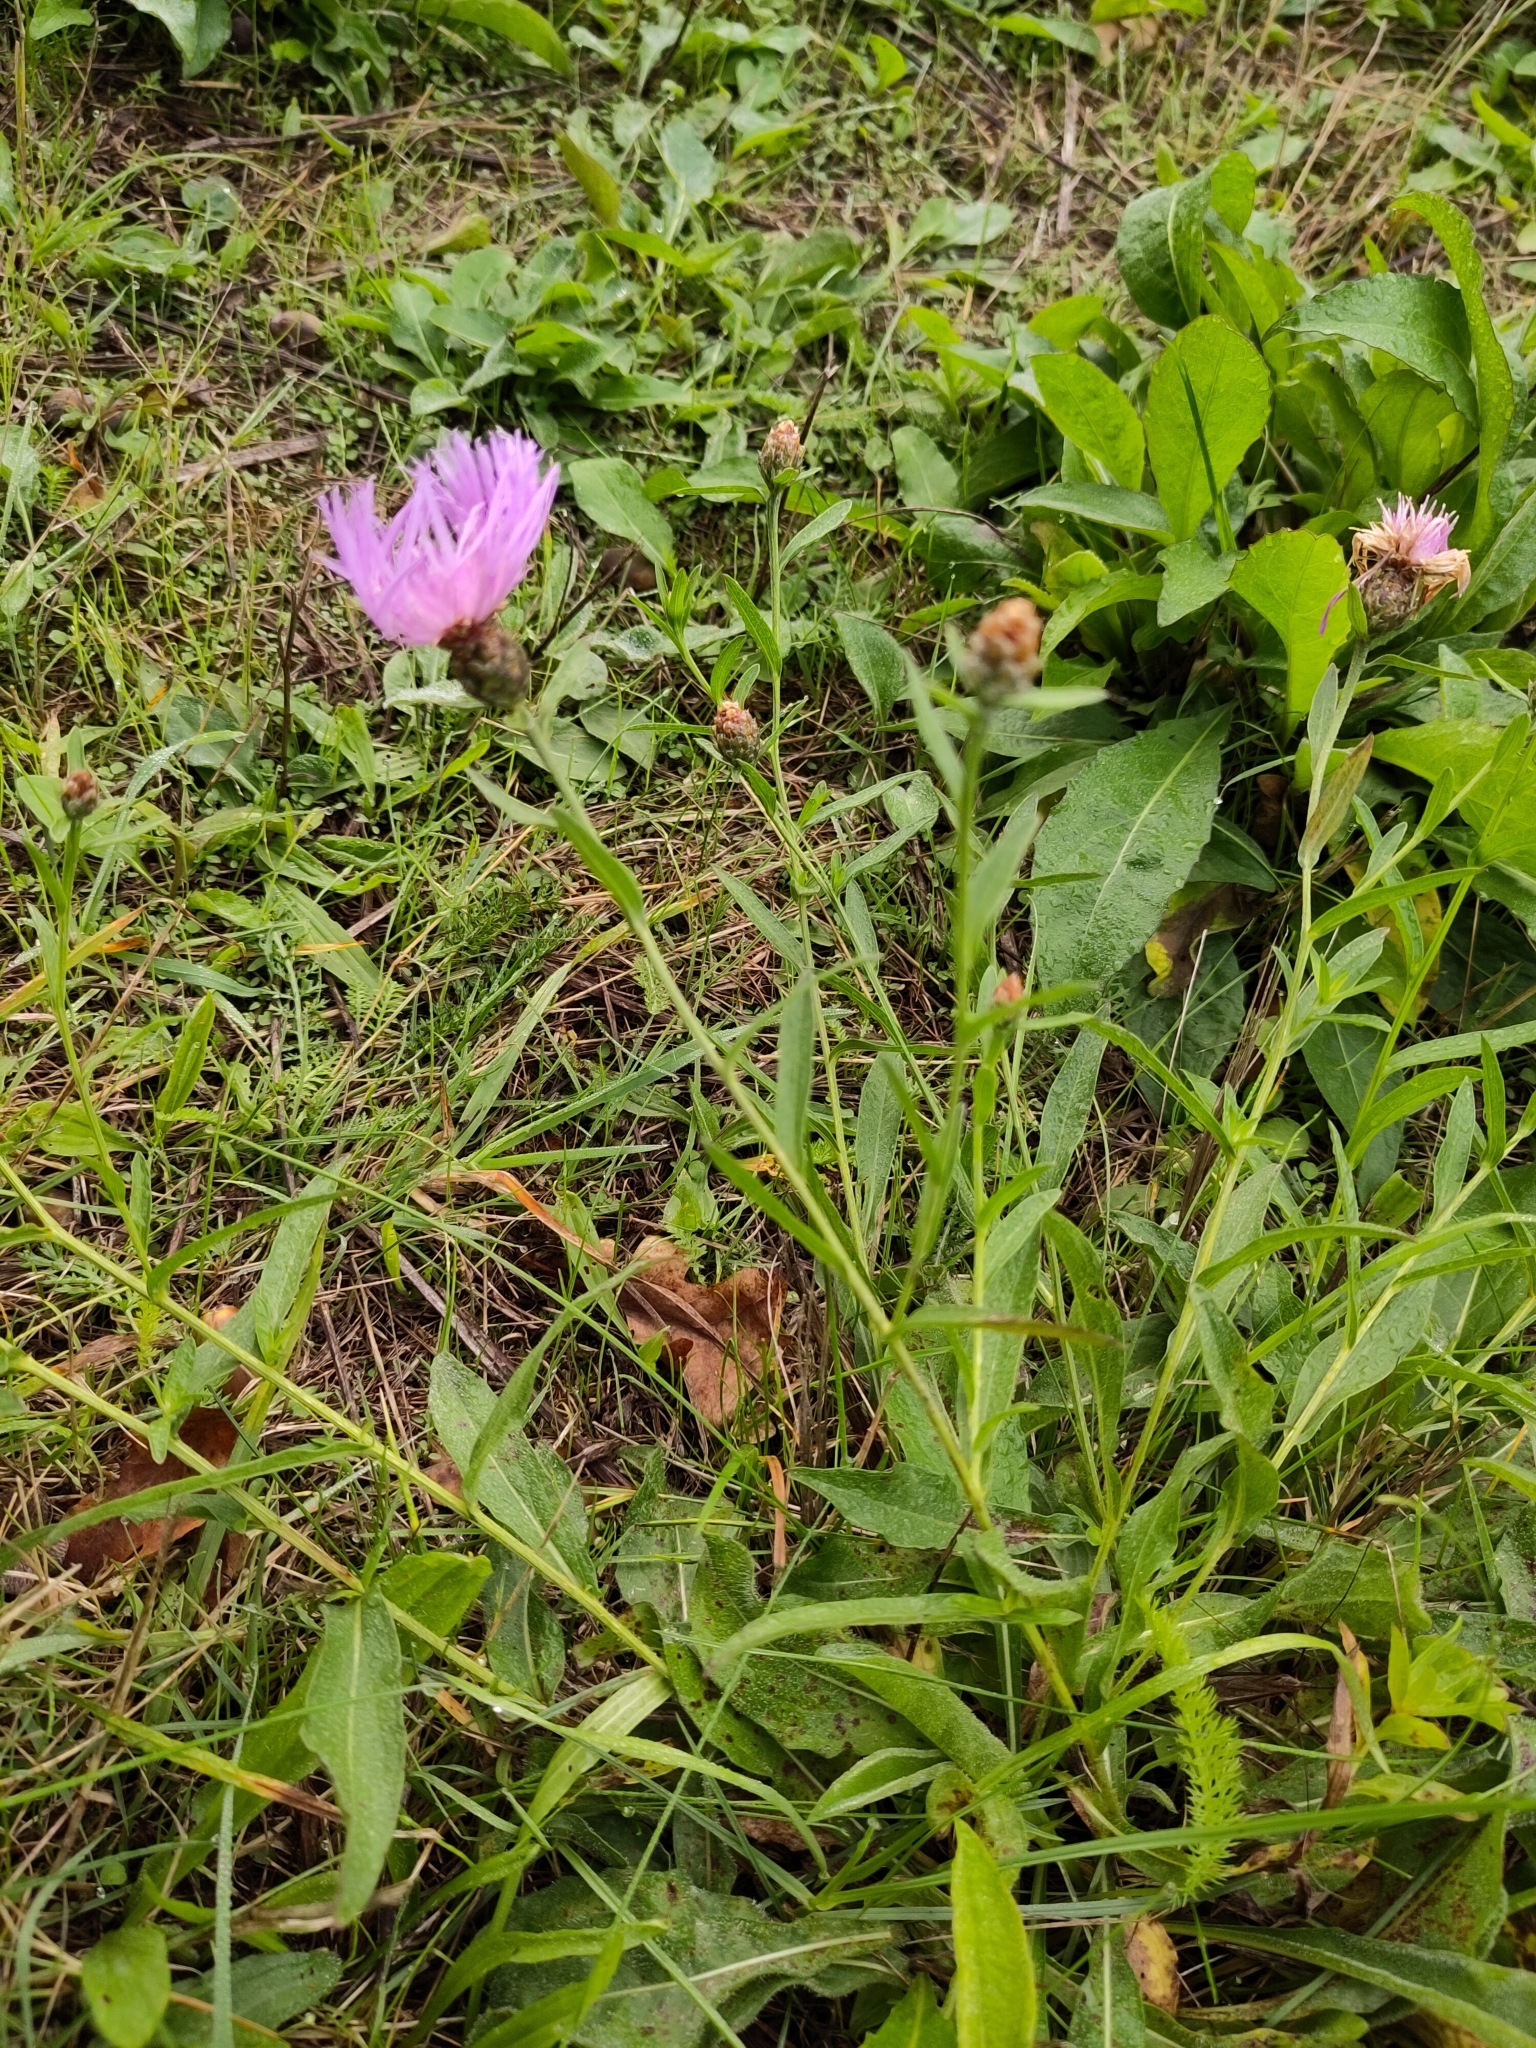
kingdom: Plantae
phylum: Tracheophyta
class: Magnoliopsida
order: Asterales
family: Asteraceae
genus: Centaurea
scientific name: Centaurea jacea
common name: Brown knapweed
